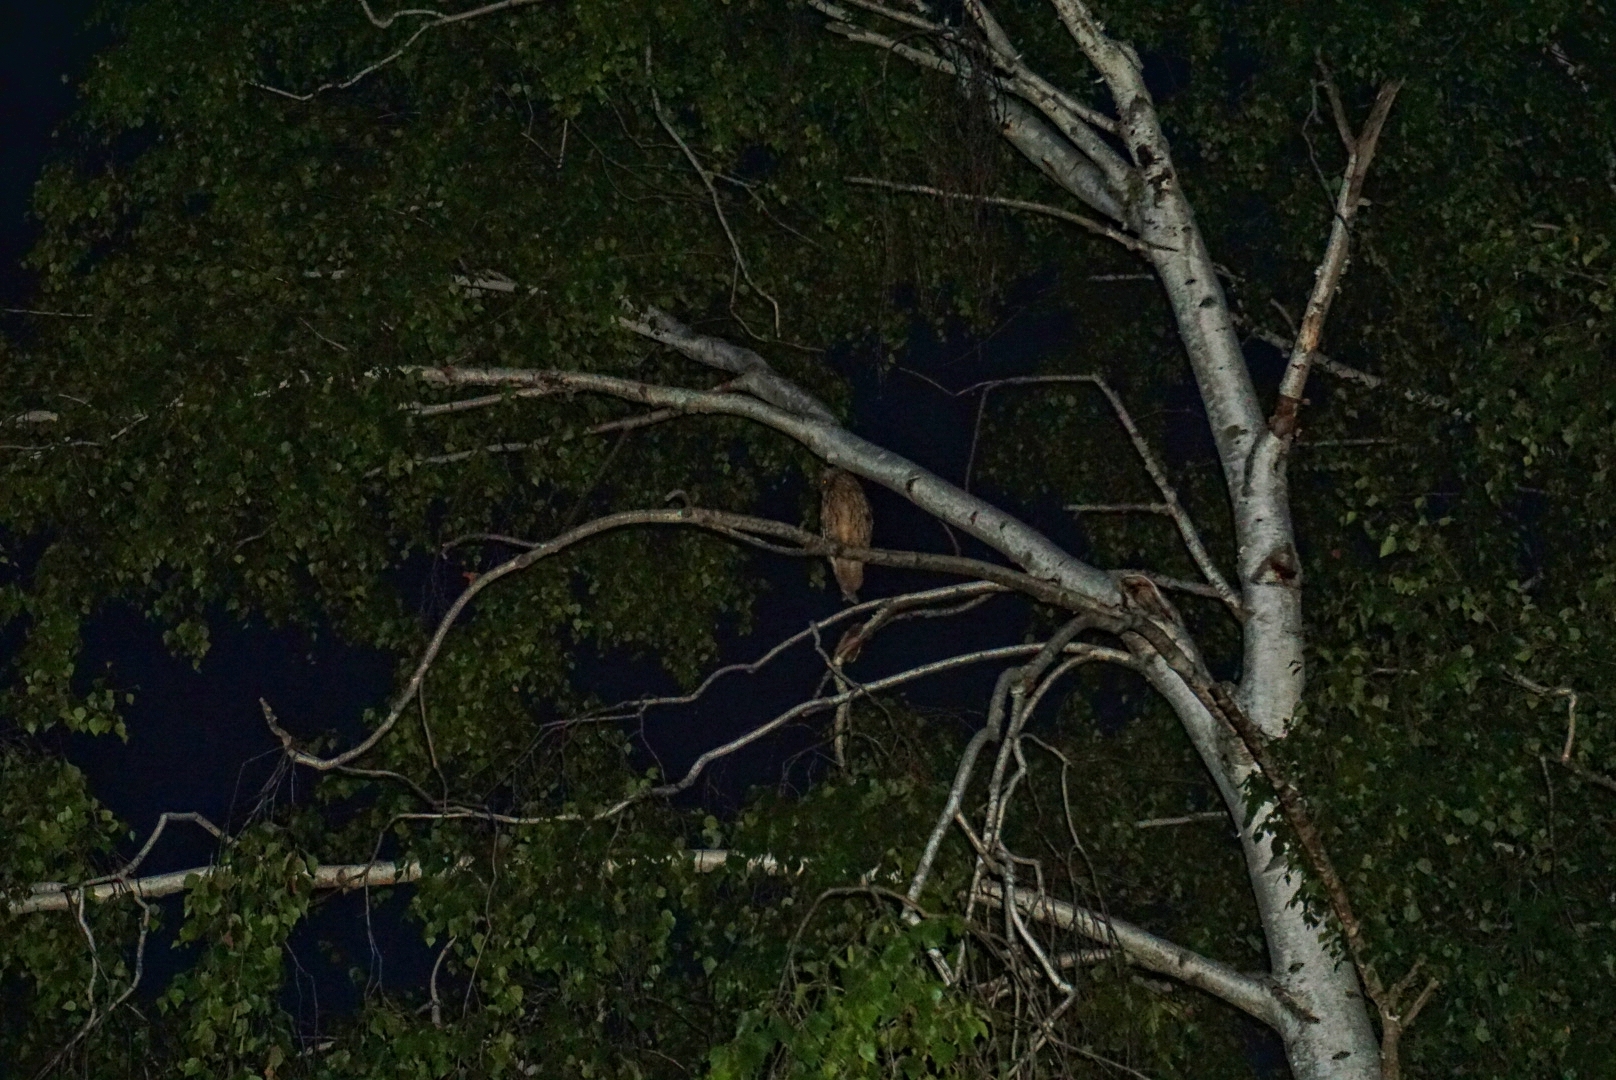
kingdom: Animalia
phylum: Chordata
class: Aves
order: Strigiformes
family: Strigidae
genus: Asio
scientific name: Asio otus
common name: Long-eared owl
